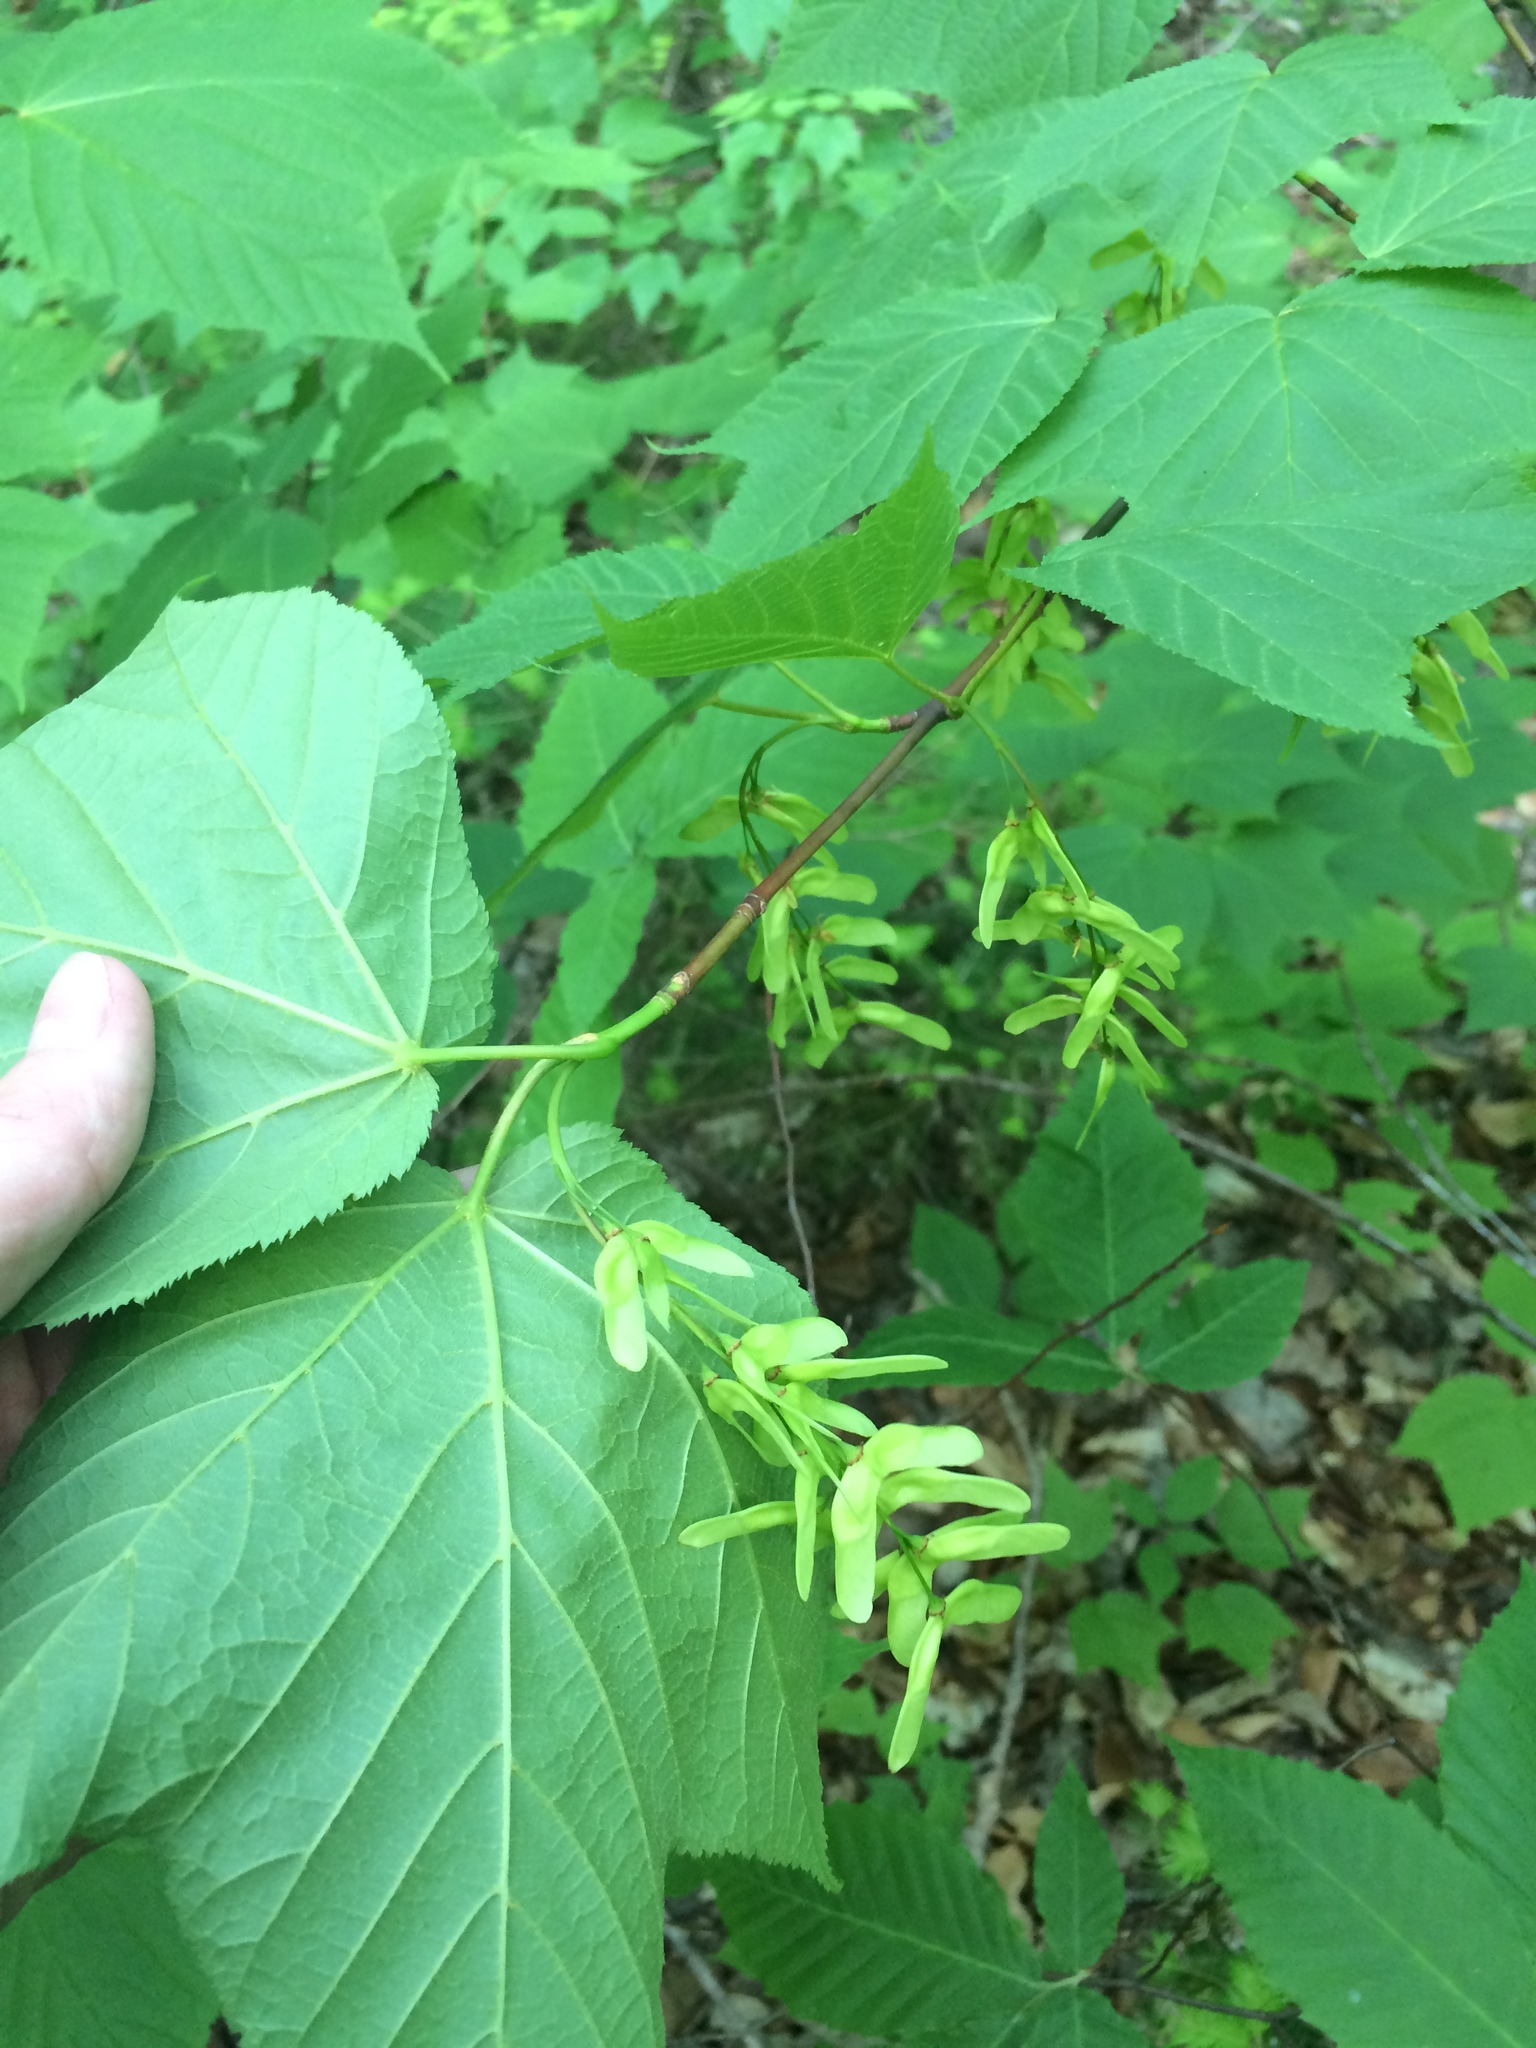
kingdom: Plantae
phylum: Tracheophyta
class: Magnoliopsida
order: Sapindales
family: Sapindaceae
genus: Acer
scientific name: Acer pensylvanicum
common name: Moosewood
